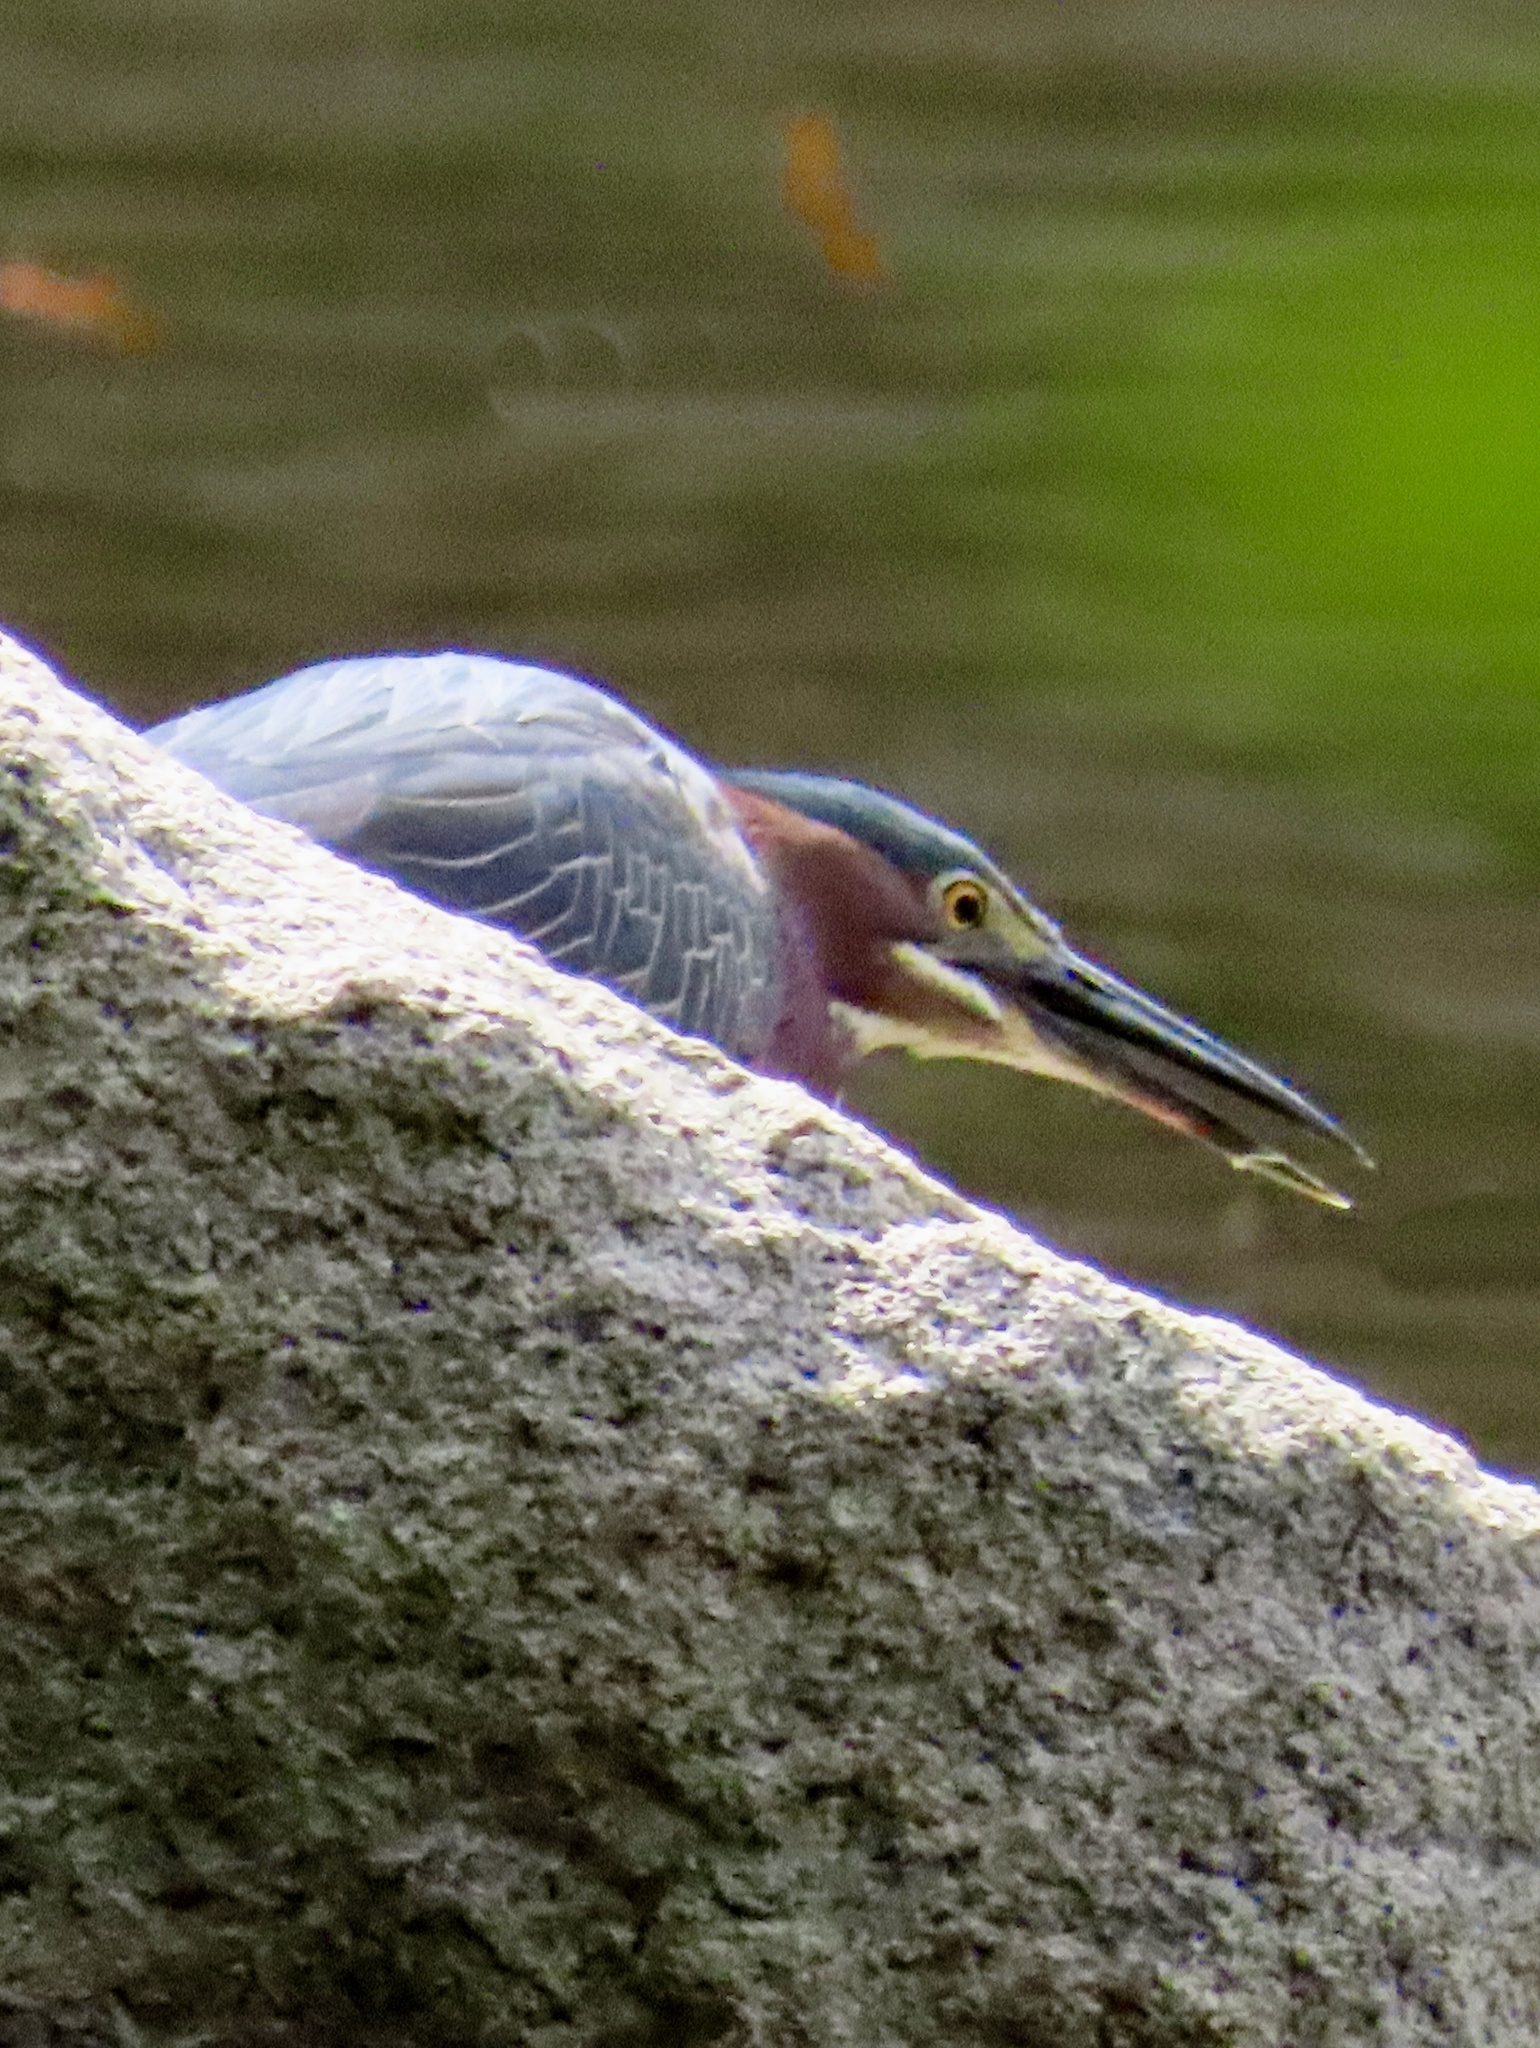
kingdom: Animalia
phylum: Chordata
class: Aves
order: Pelecaniformes
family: Ardeidae
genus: Butorides
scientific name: Butorides virescens
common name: Green heron
